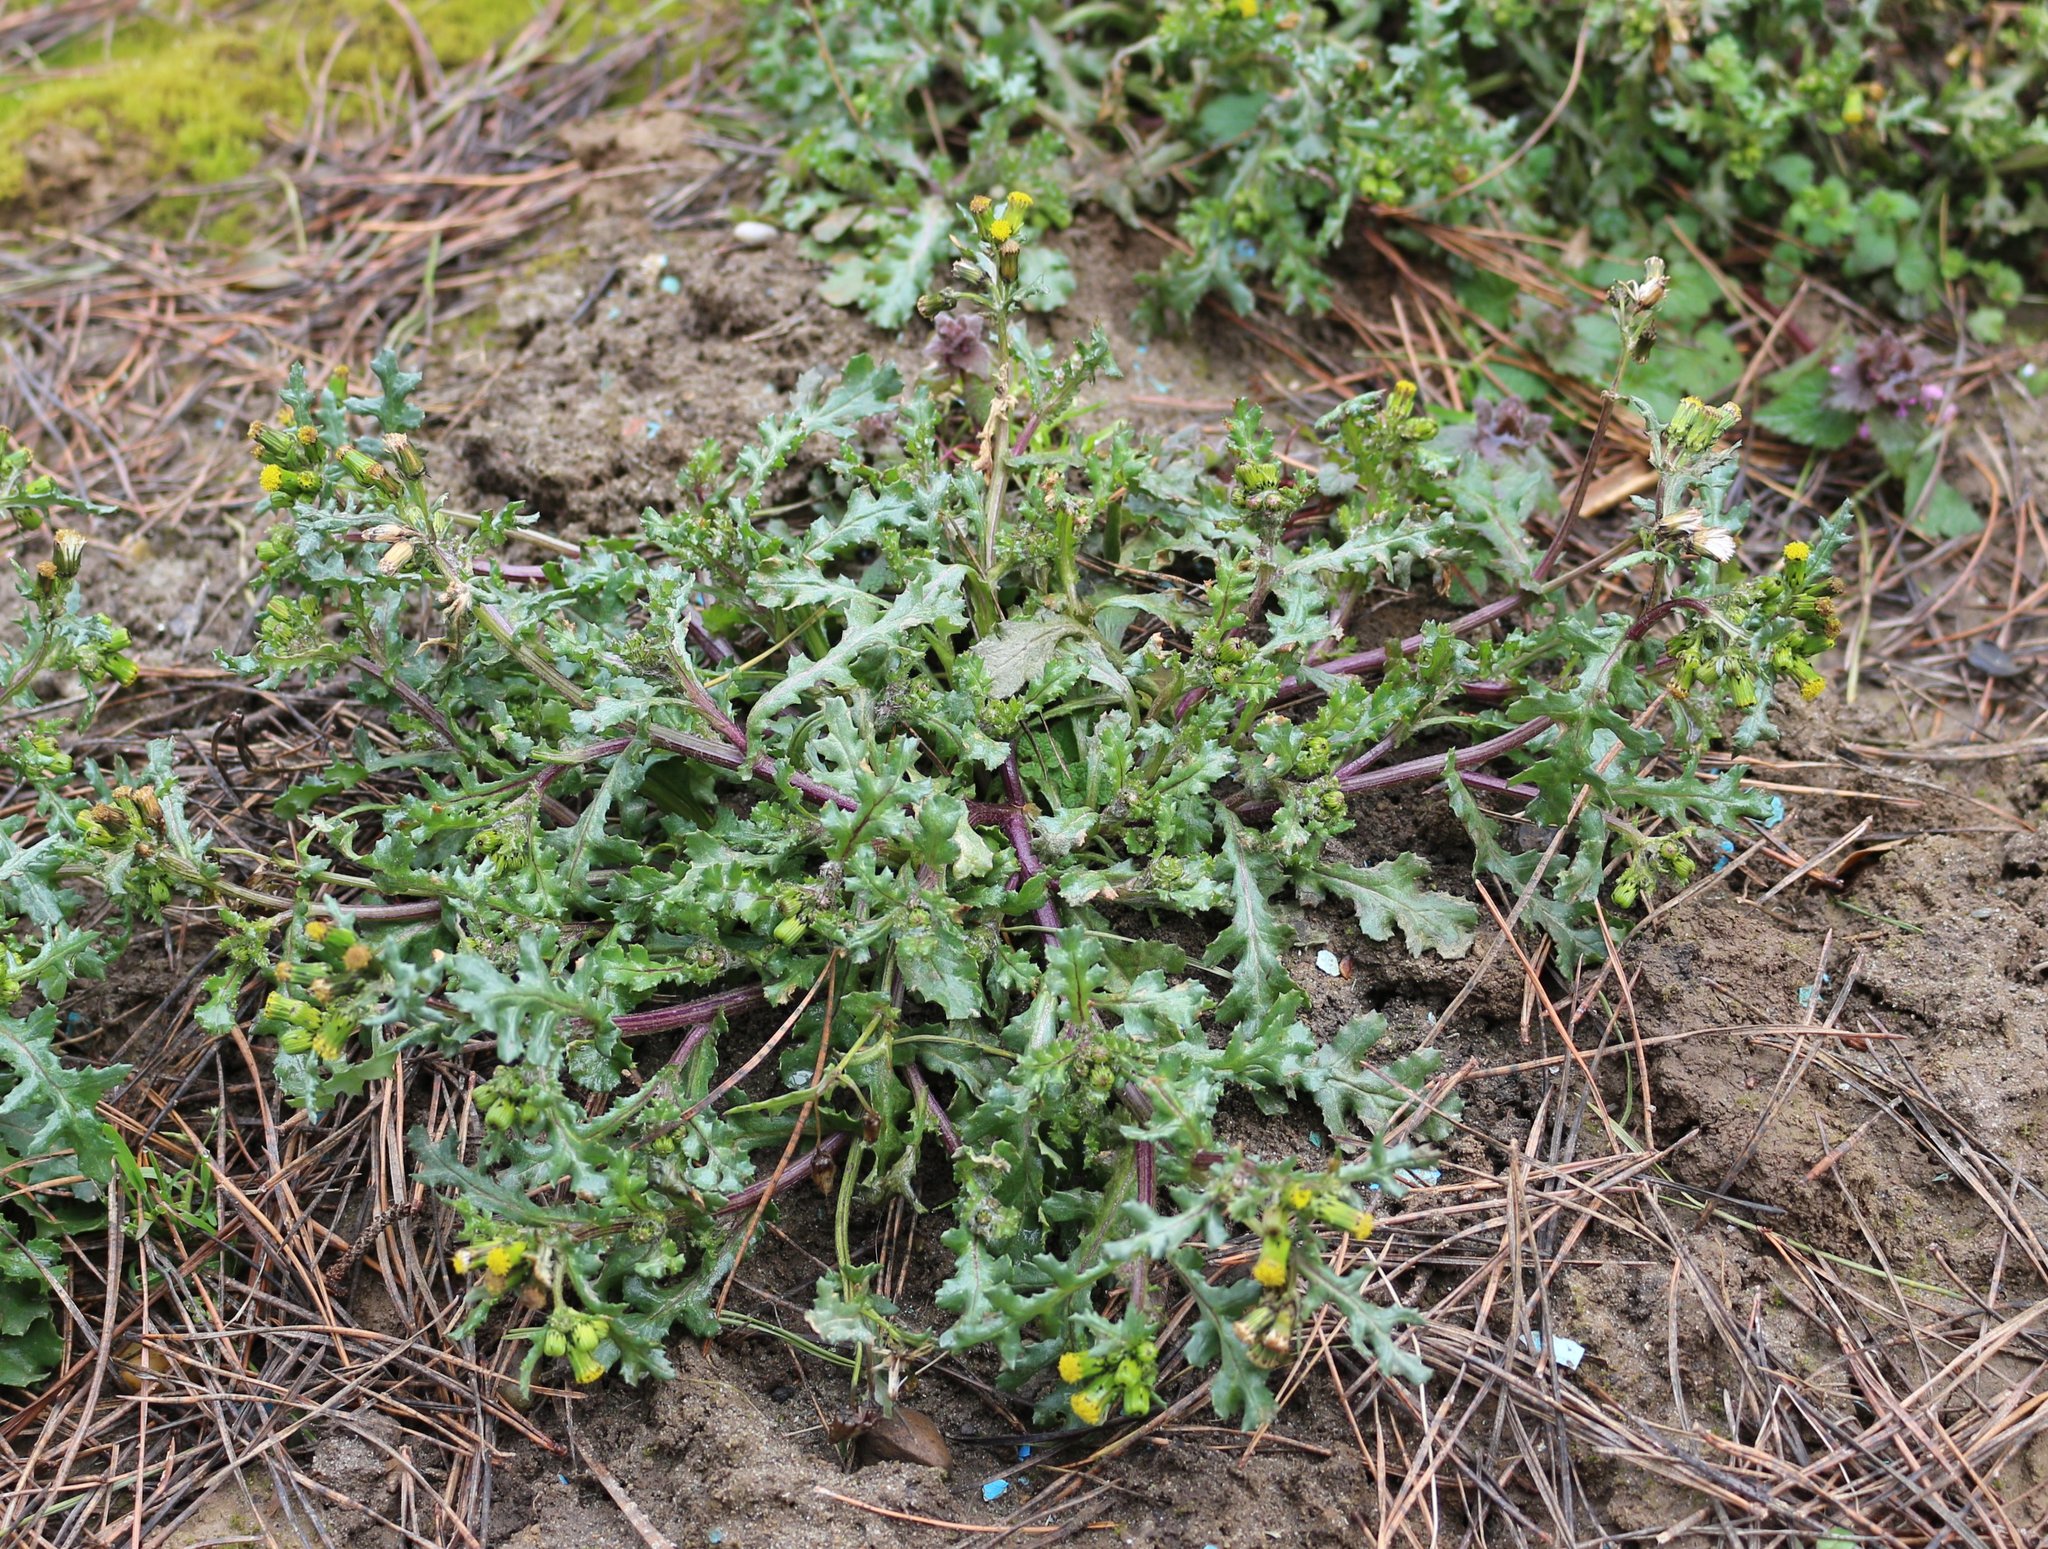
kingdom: Plantae
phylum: Tracheophyta
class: Magnoliopsida
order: Asterales
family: Asteraceae
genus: Senecio
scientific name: Senecio vulgaris
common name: Old-man-in-the-spring
